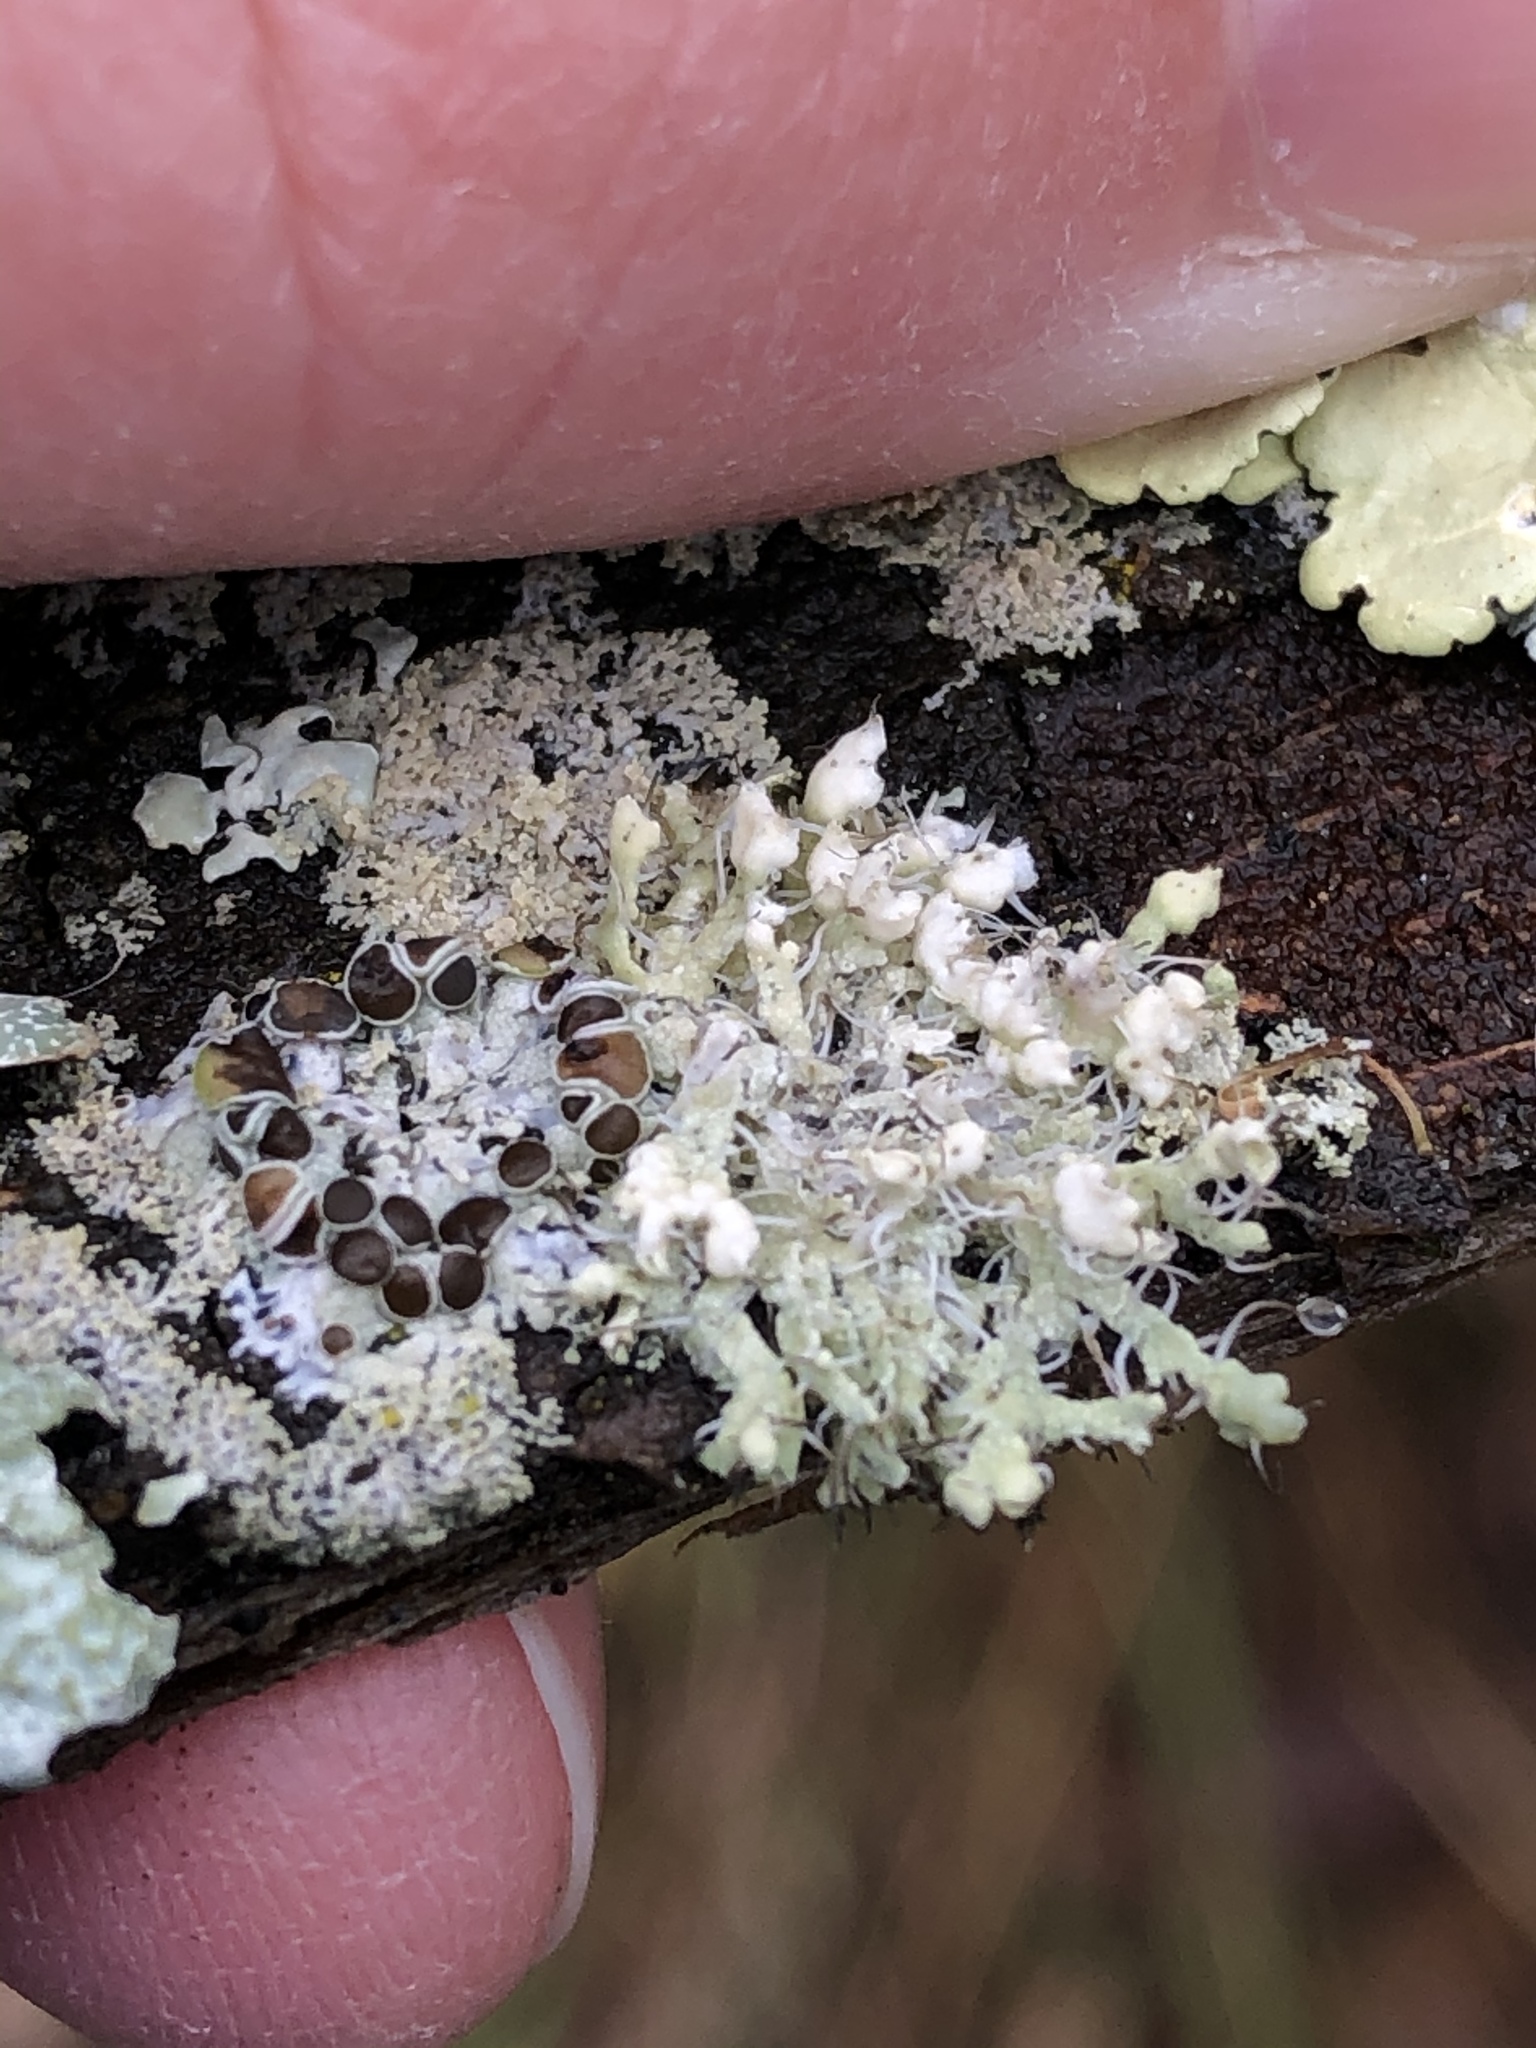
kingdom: Fungi
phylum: Ascomycota
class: Lecanoromycetes
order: Caliciales
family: Physciaceae
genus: Physcia
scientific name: Physcia adscendens
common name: Hooded rosette lichen
